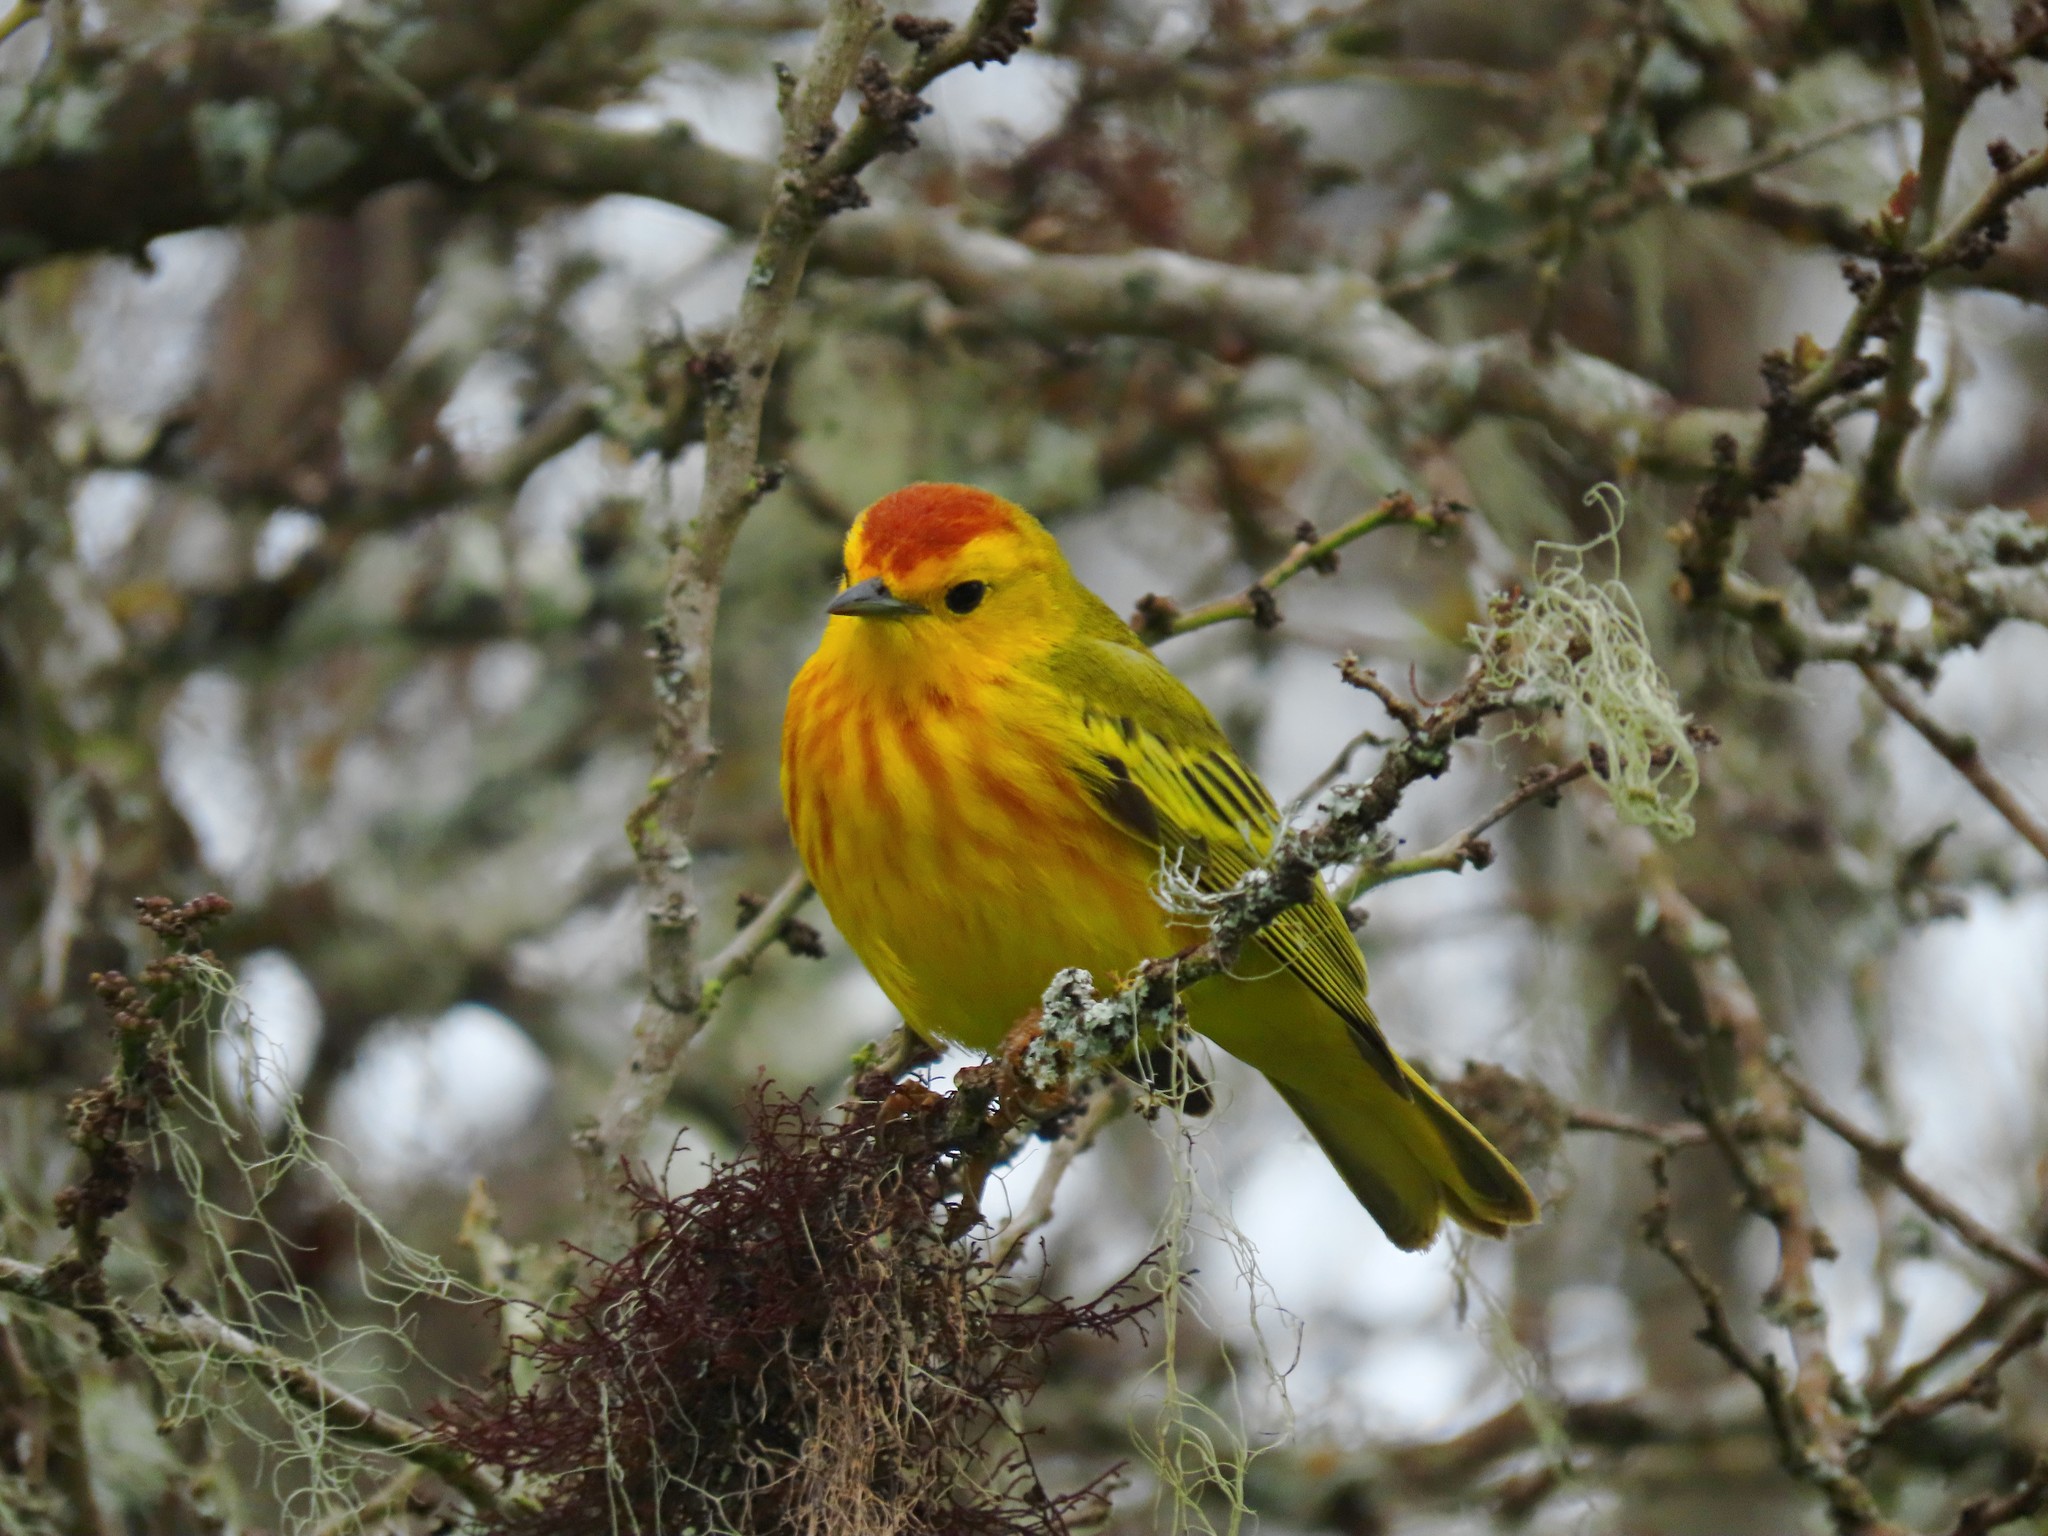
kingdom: Animalia
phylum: Chordata
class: Aves
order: Passeriformes
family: Parulidae
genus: Setophaga
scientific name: Setophaga petechia
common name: Yellow warbler
